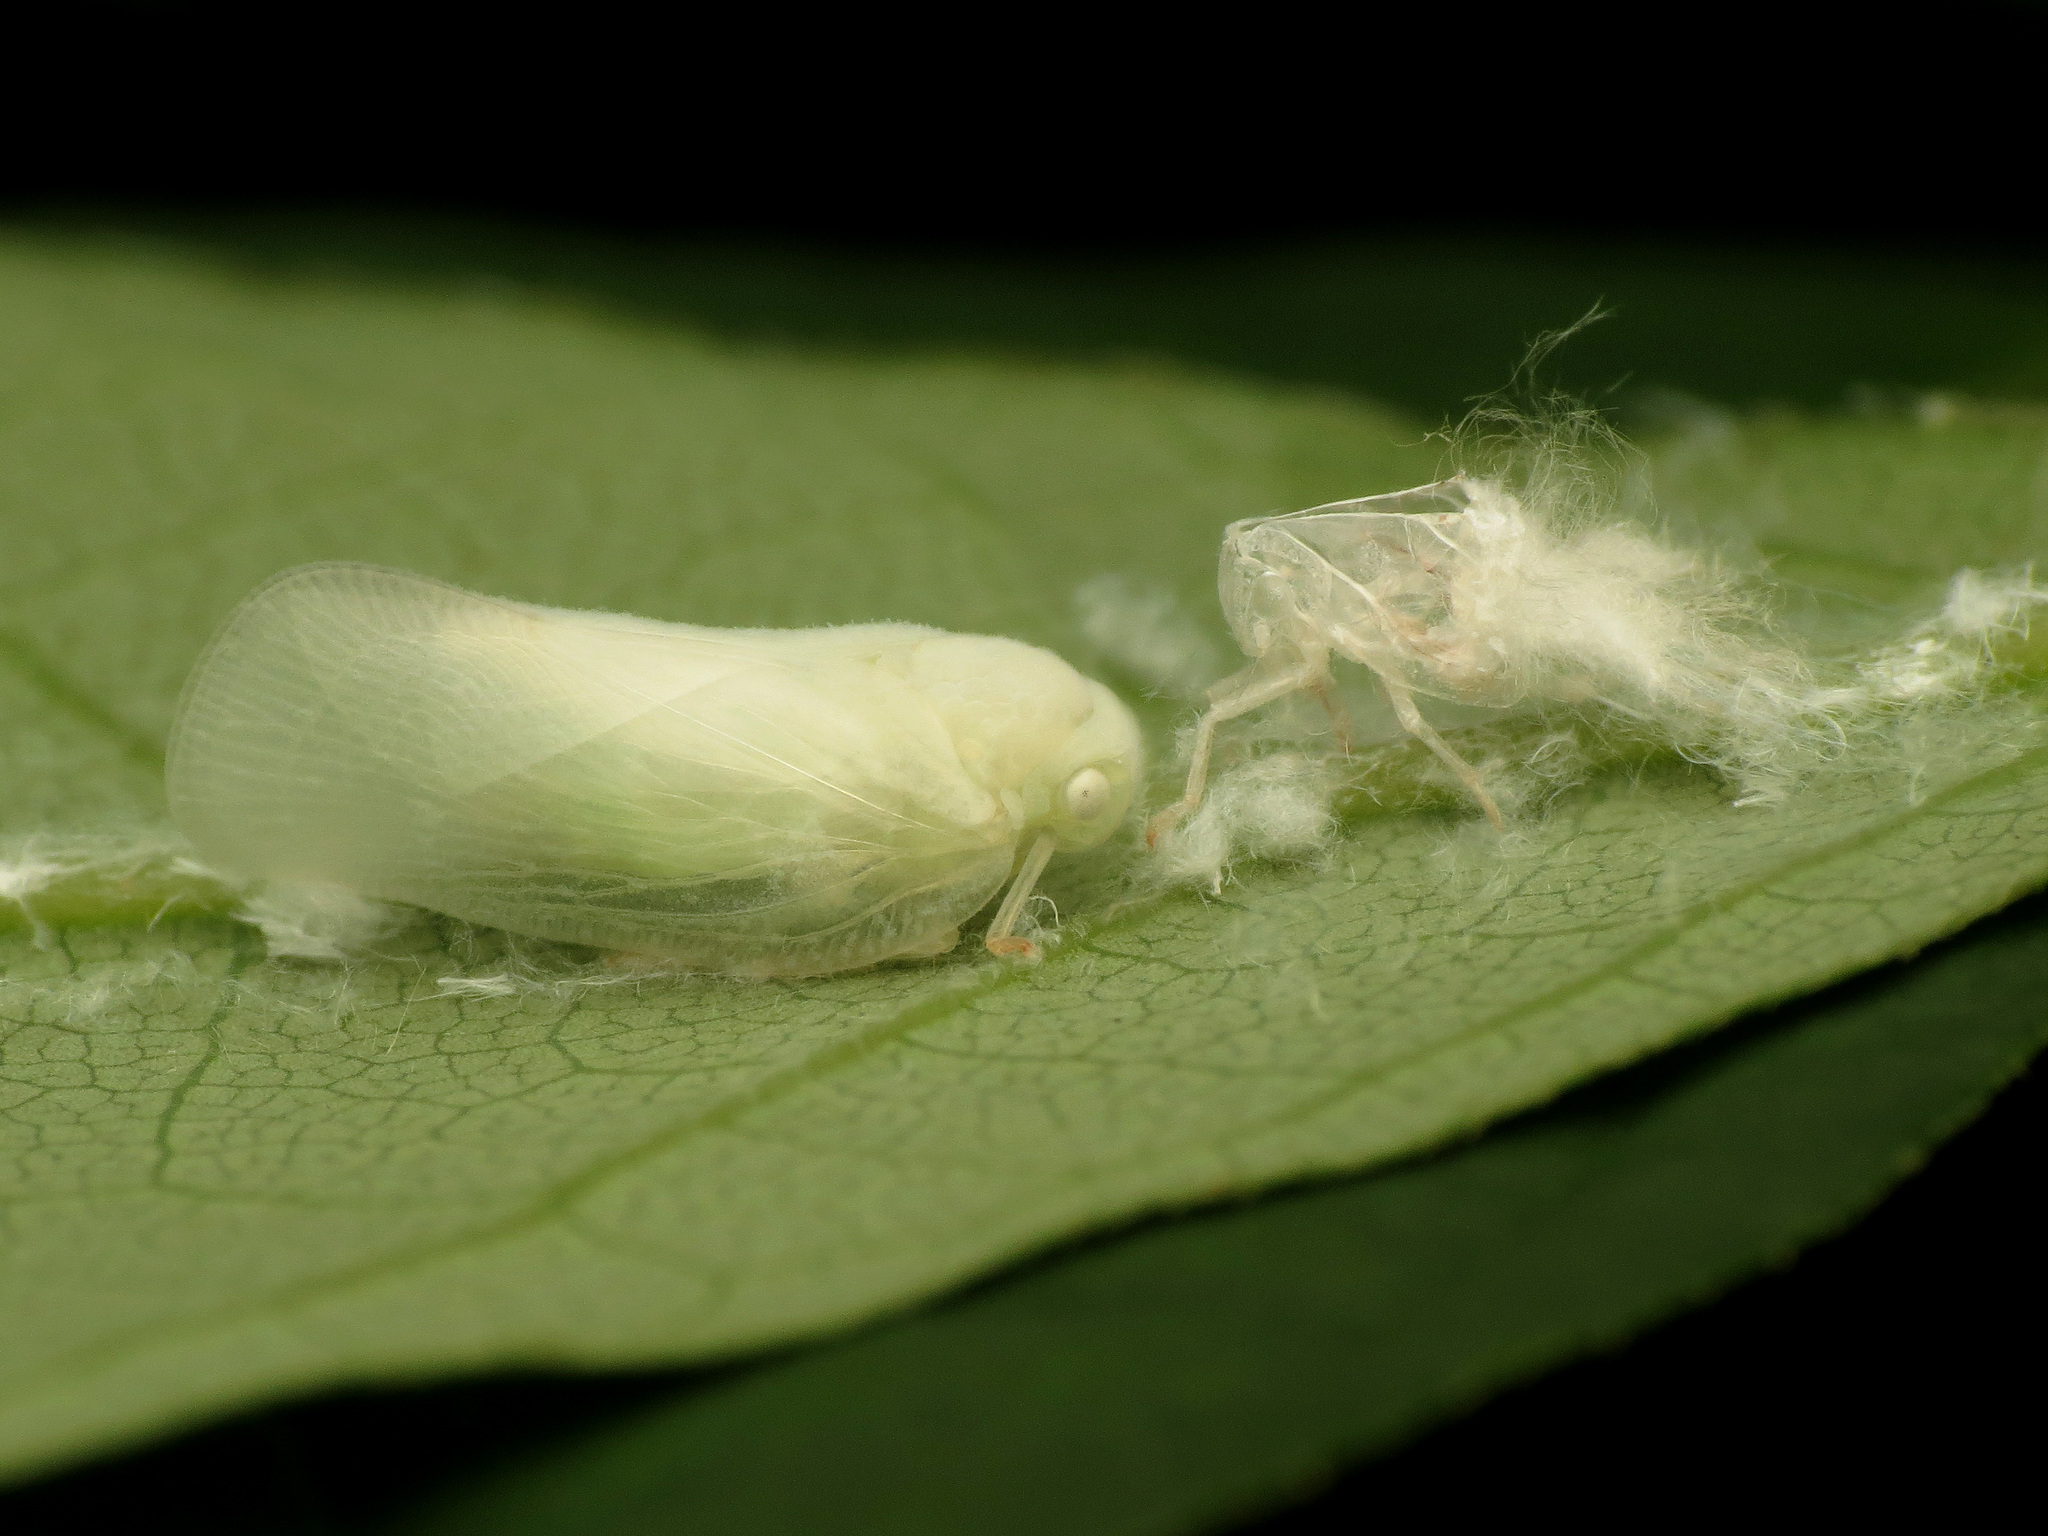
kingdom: Animalia
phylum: Arthropoda
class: Insecta
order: Hemiptera
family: Flatidae
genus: Metcalfa
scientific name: Metcalfa pruinosa
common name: Citrus flatid planthopper
